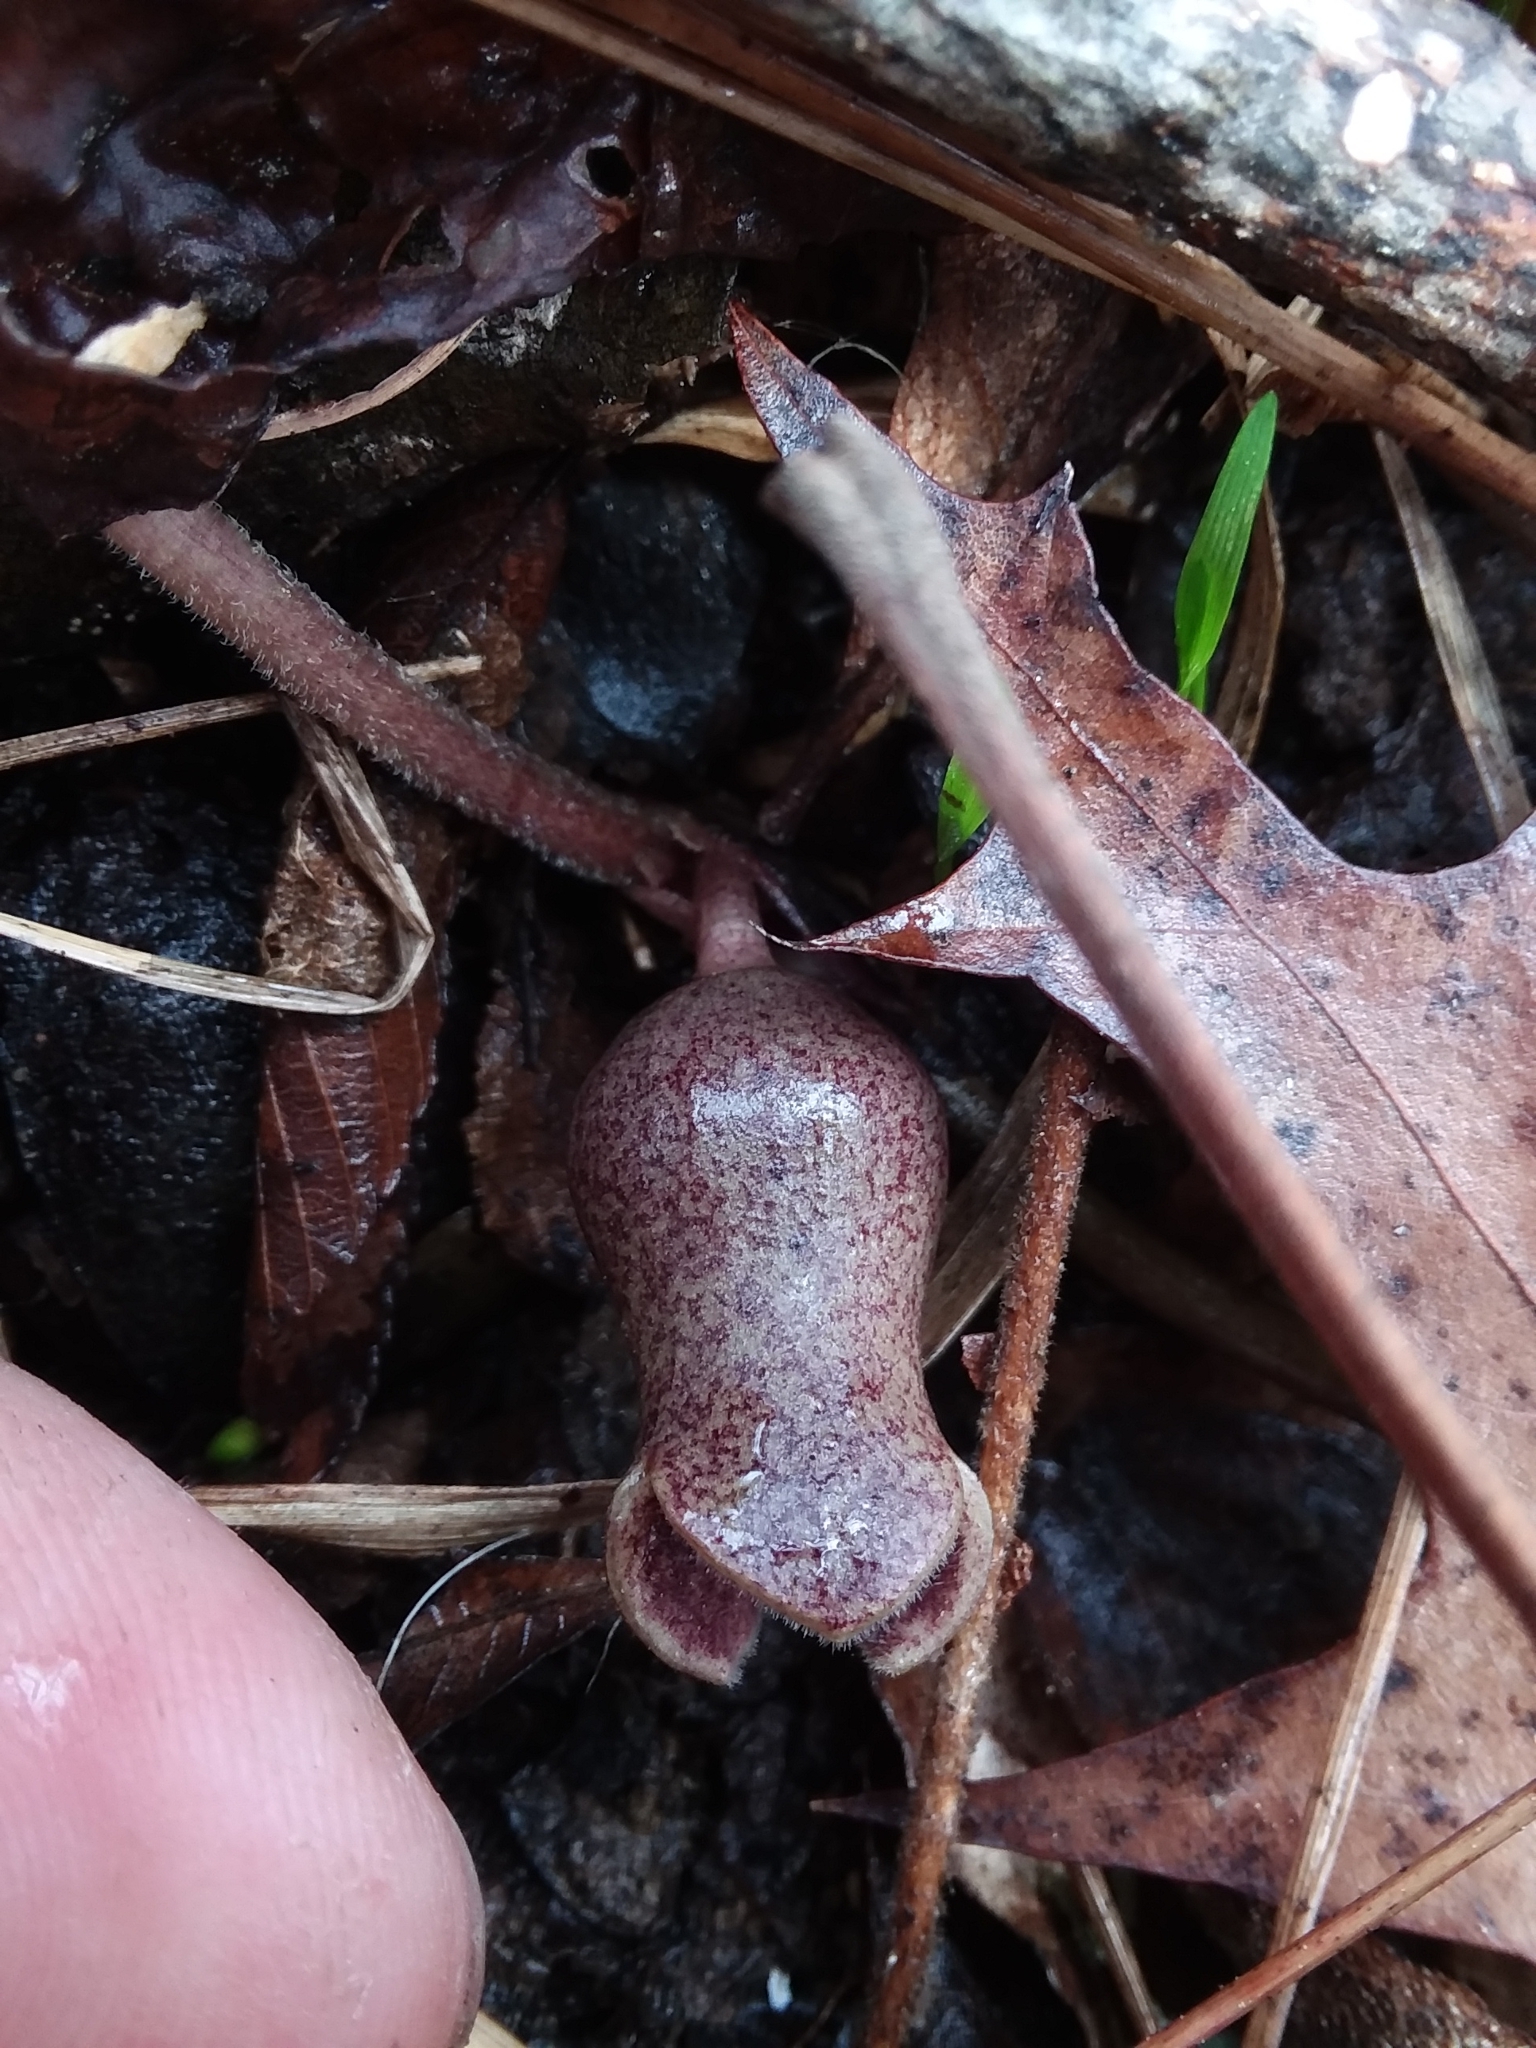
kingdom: Plantae
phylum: Tracheophyta
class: Magnoliopsida
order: Piperales
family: Aristolochiaceae
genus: Hexastylis
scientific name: Hexastylis arifolia
